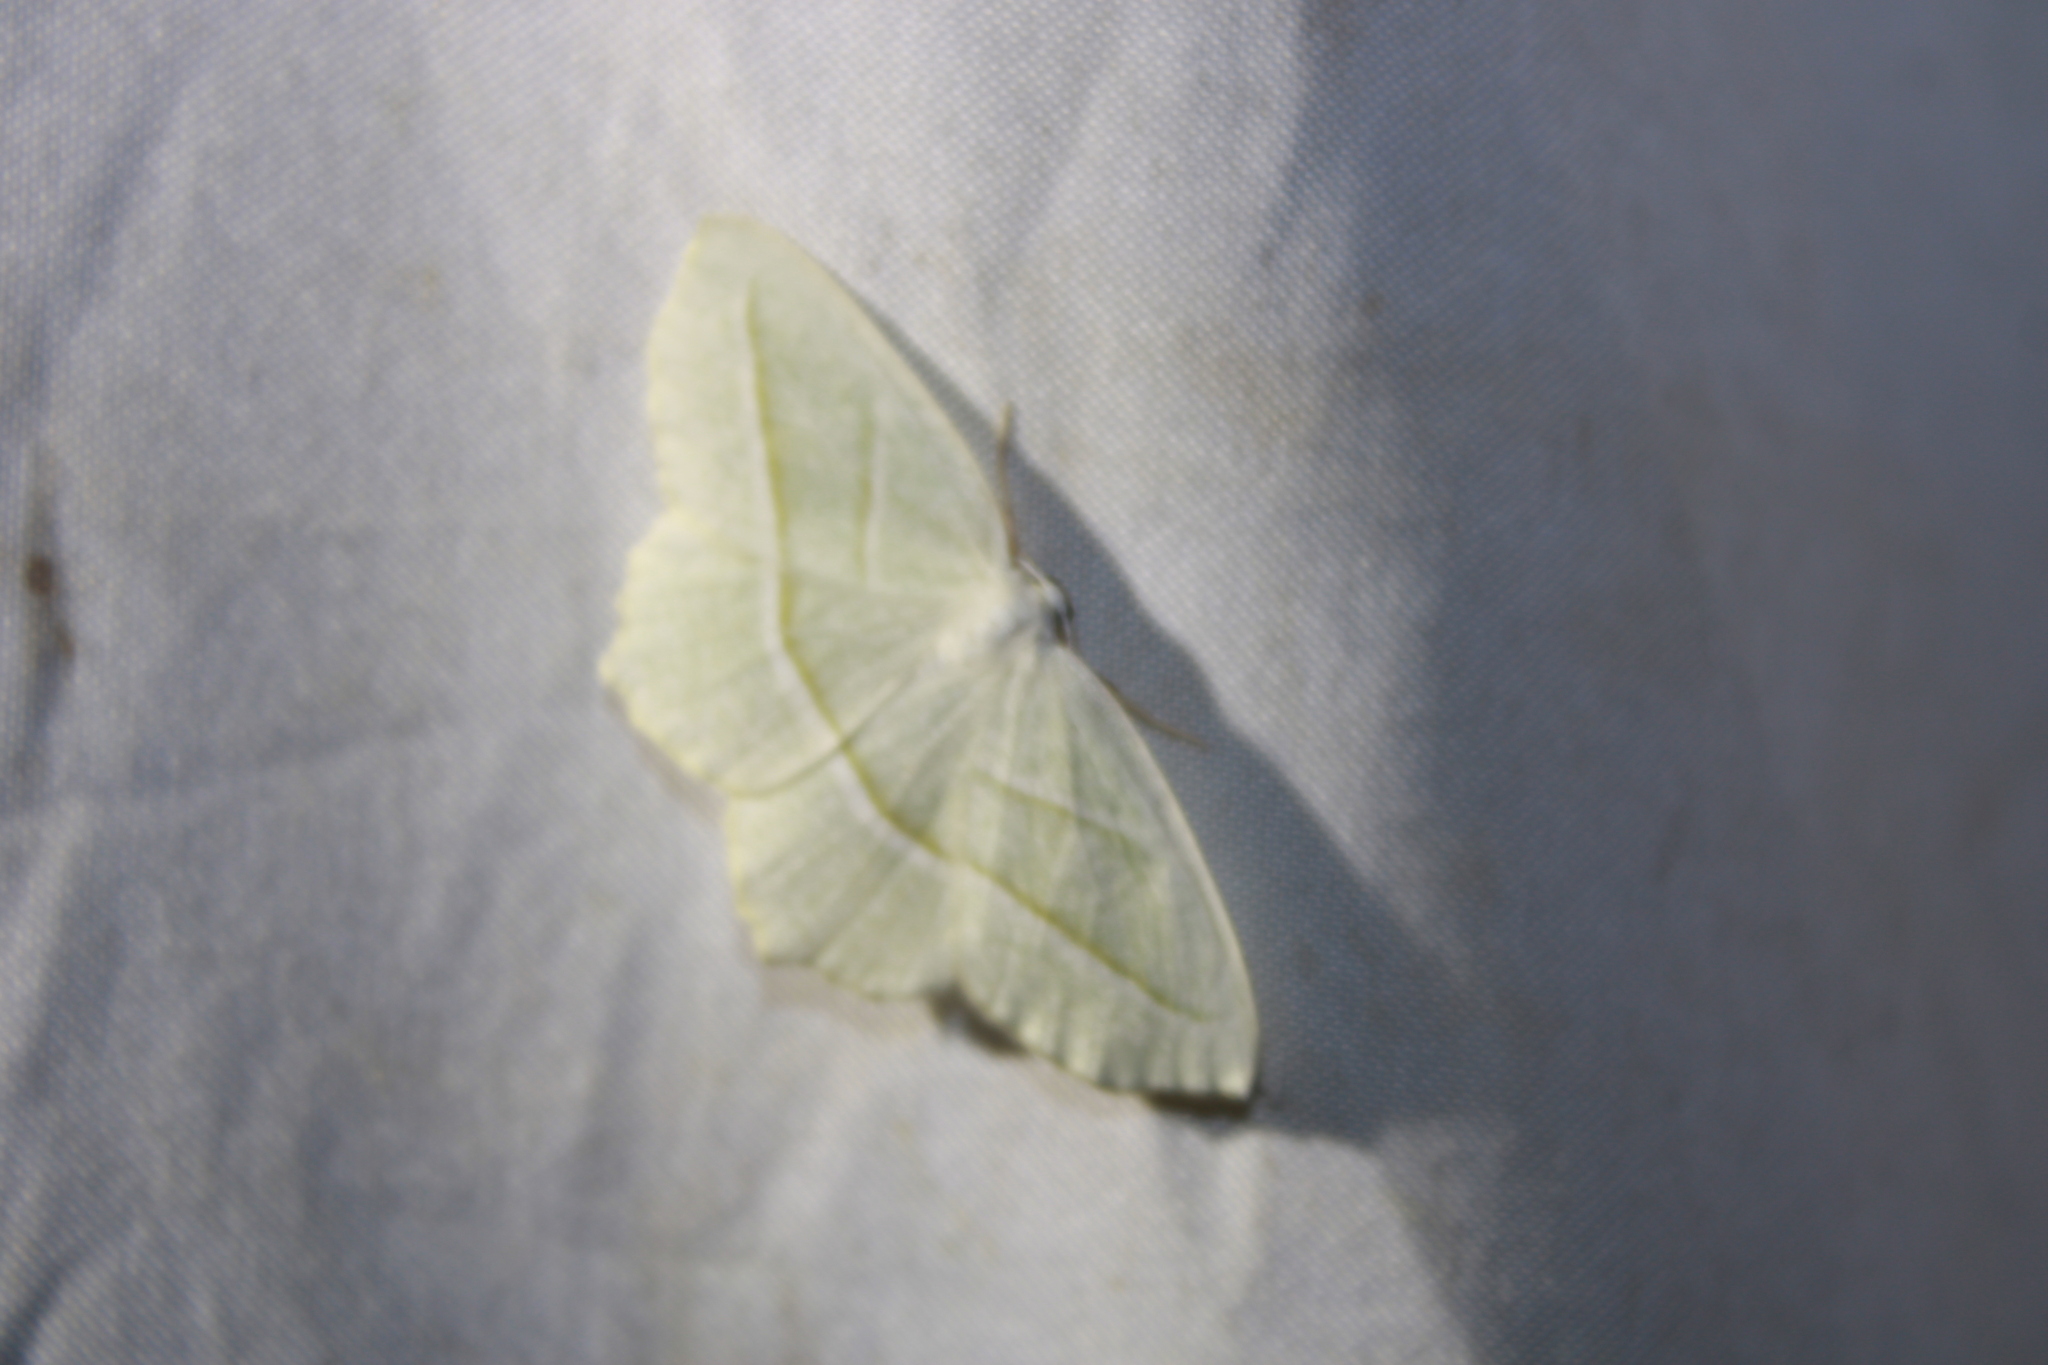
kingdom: Animalia
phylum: Arthropoda
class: Insecta
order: Lepidoptera
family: Geometridae
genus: Campaea
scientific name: Campaea perlata
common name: Fringed looper
